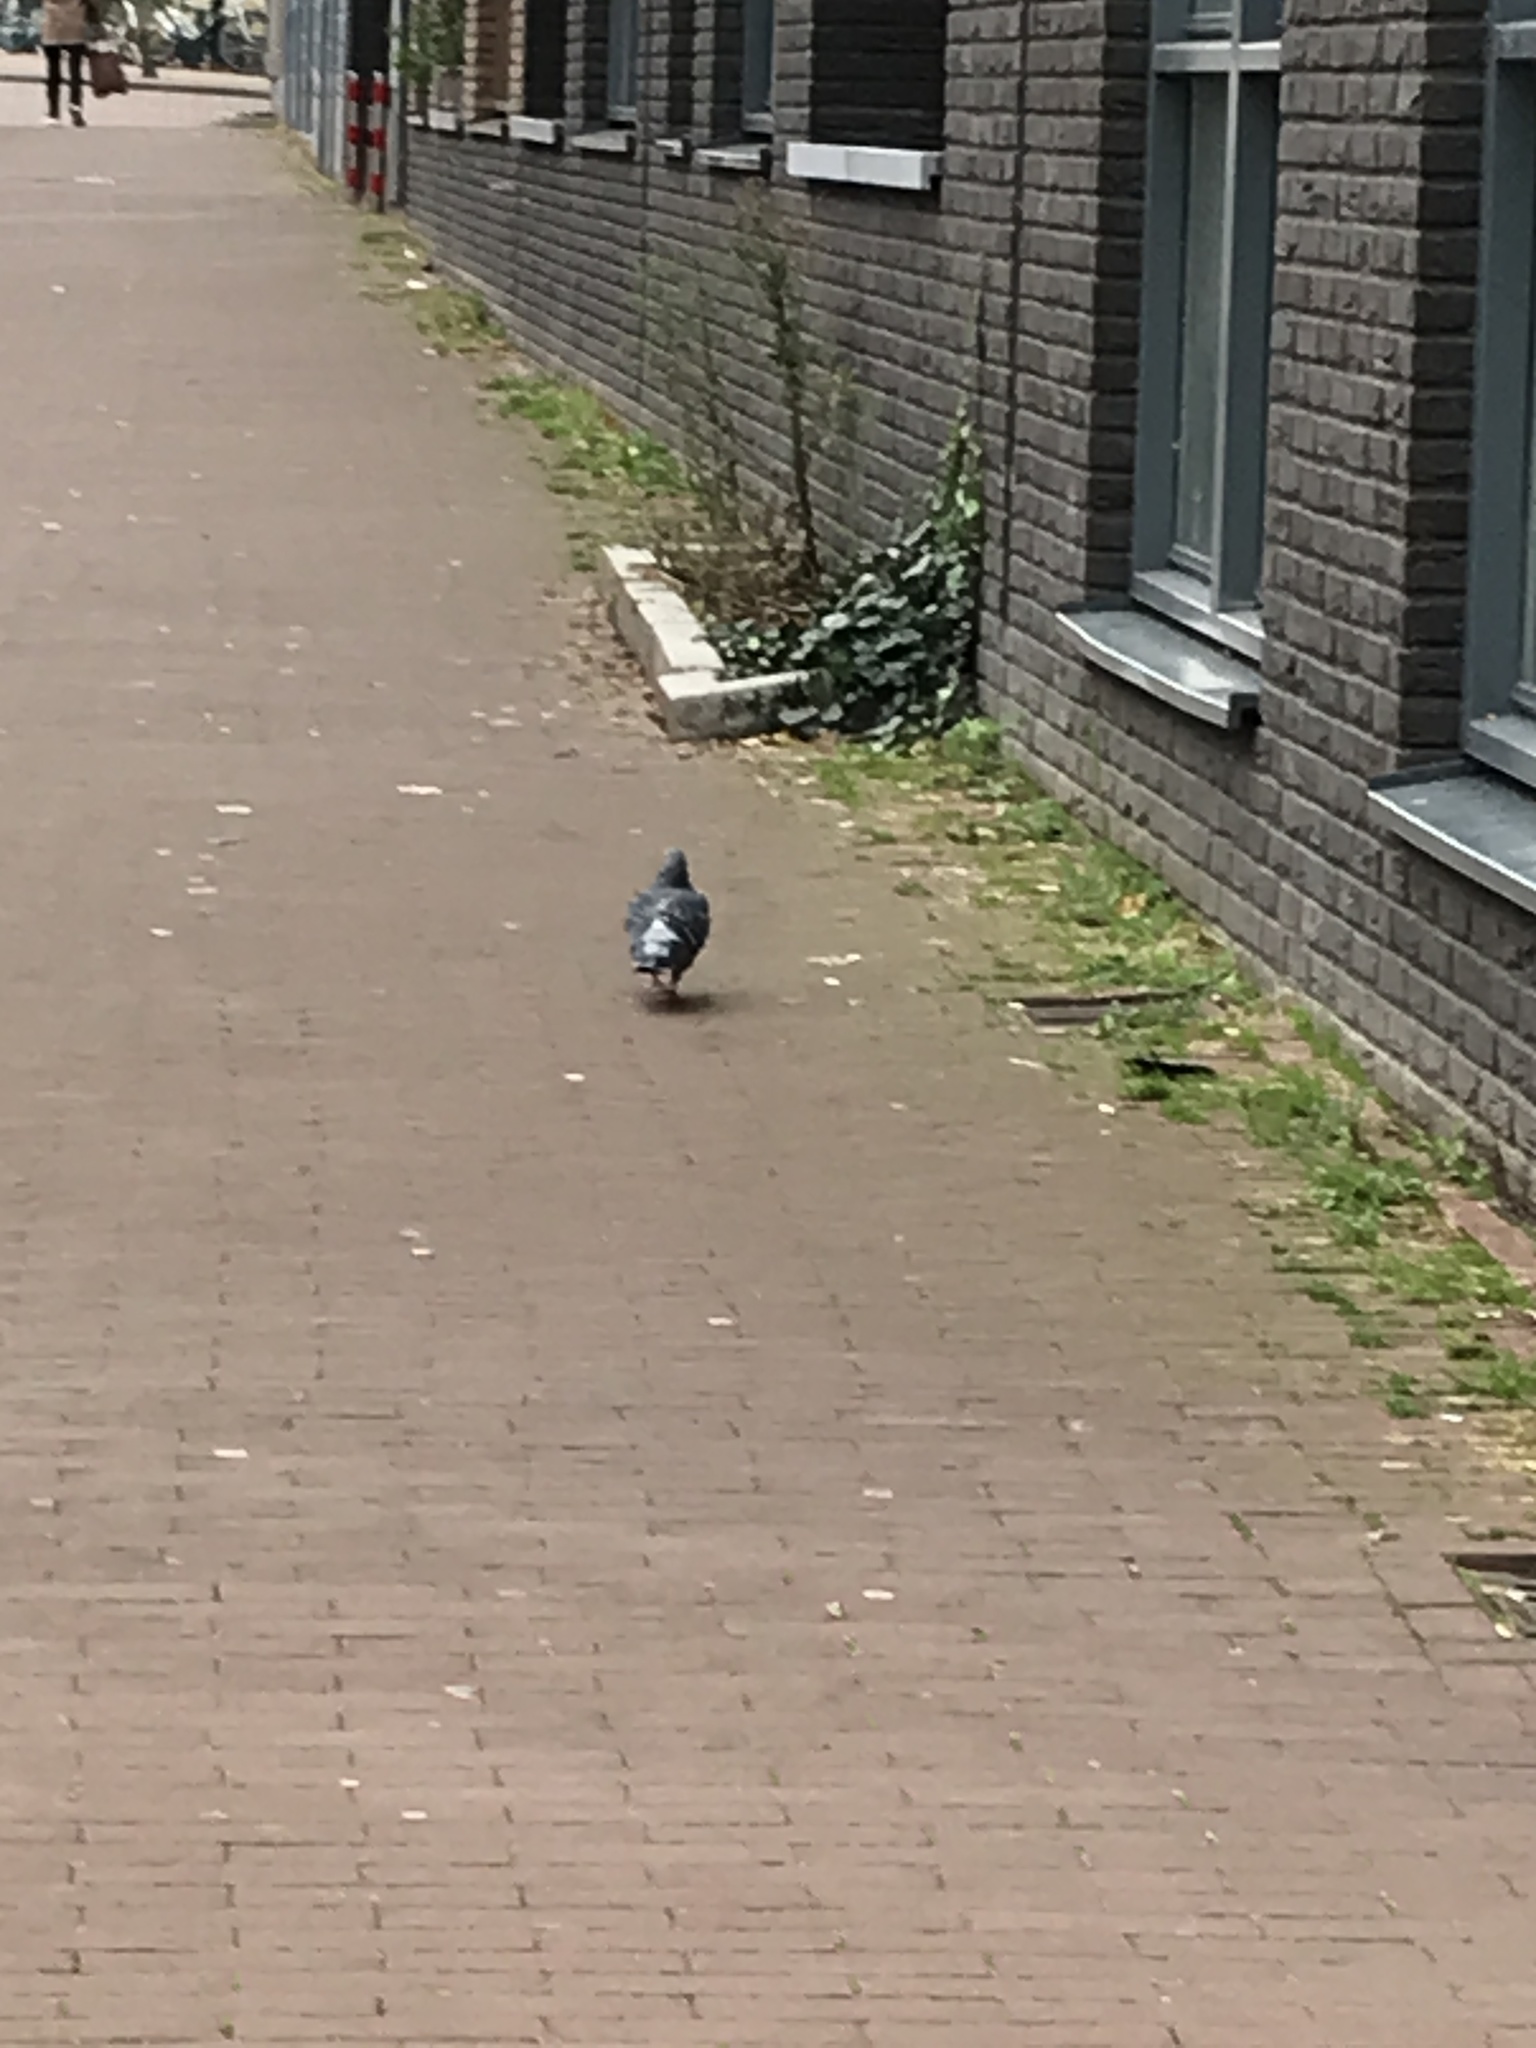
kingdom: Animalia
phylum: Chordata
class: Aves
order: Columbiformes
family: Columbidae
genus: Columba
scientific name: Columba livia
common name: Rock pigeon
